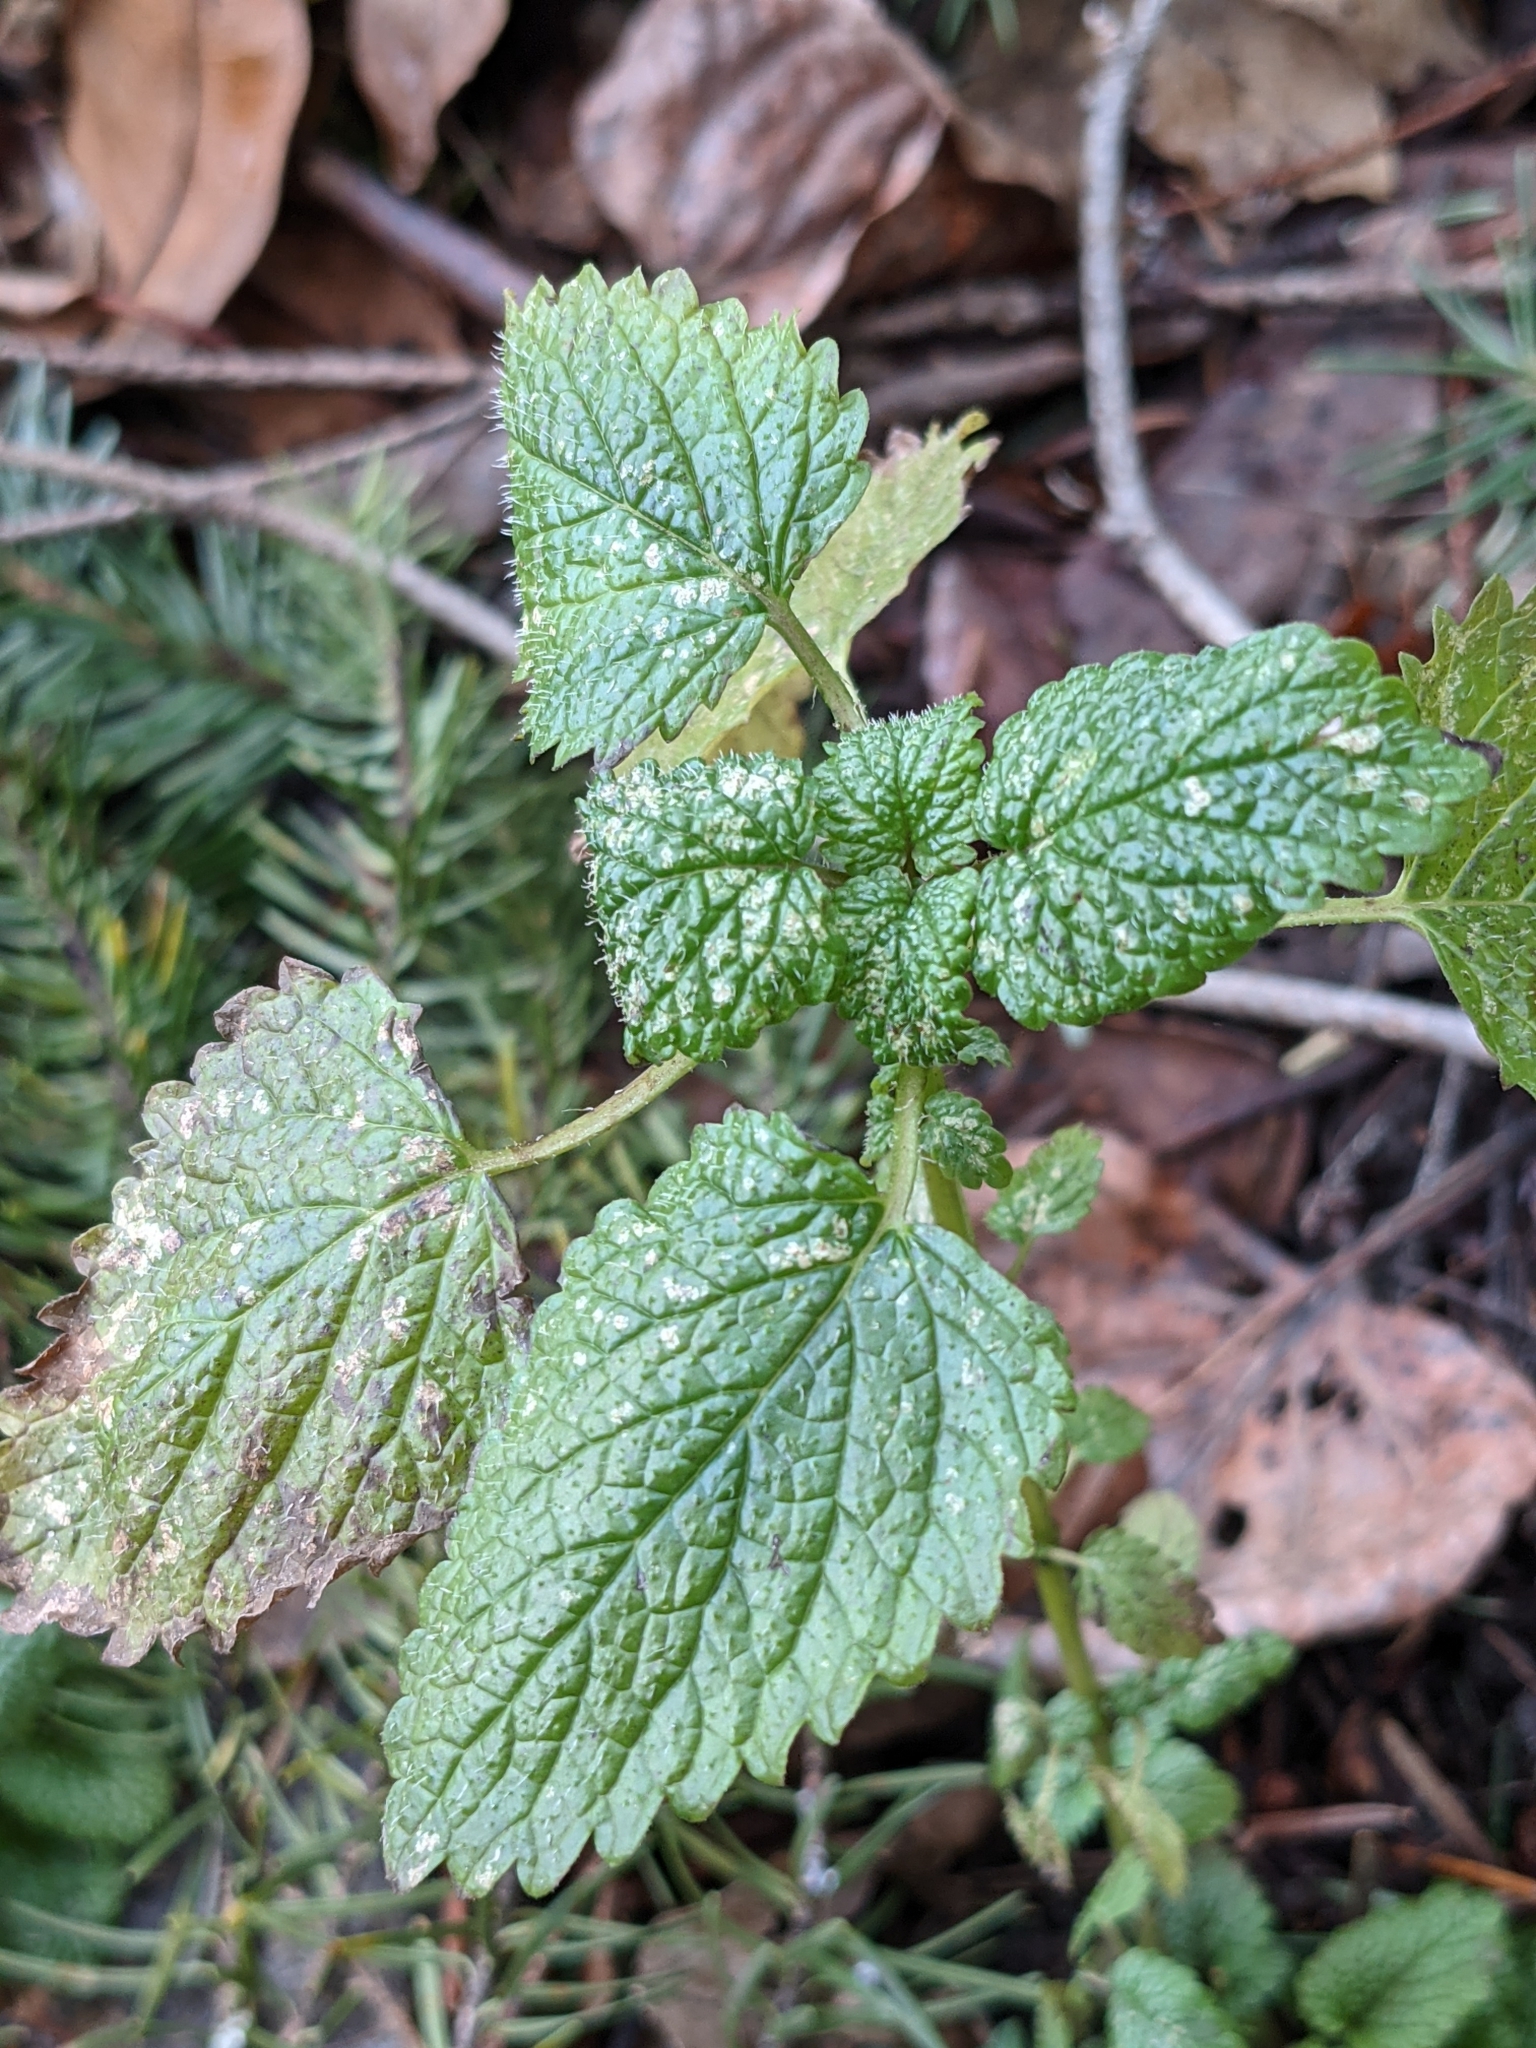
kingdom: Plantae
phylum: Tracheophyta
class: Magnoliopsida
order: Lamiales
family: Lamiaceae
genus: Melissa
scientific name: Melissa officinalis
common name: Balm
